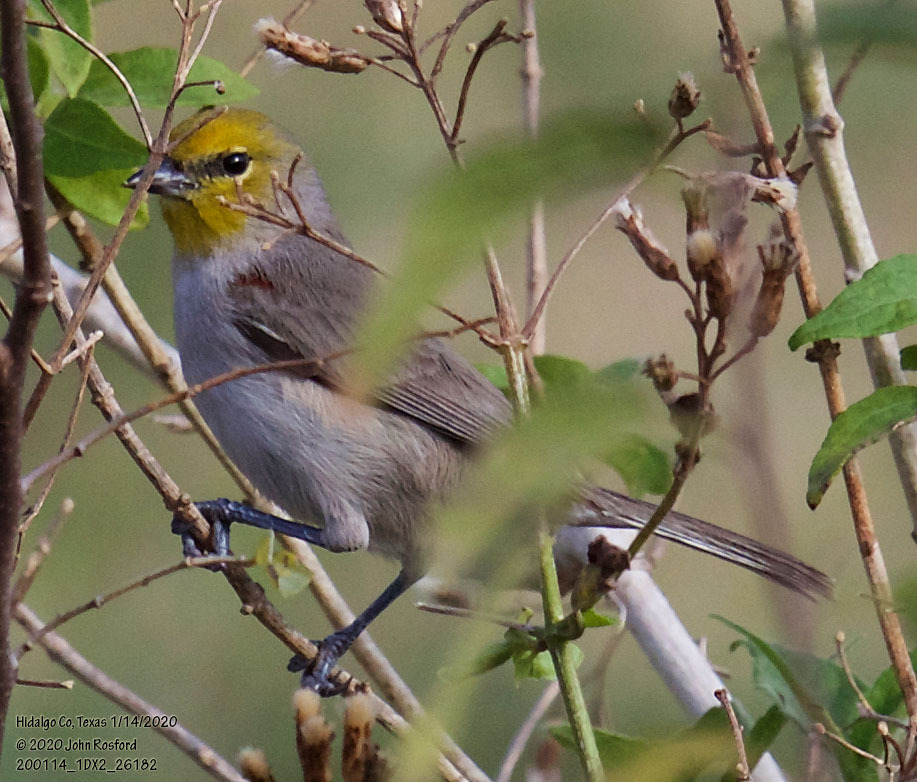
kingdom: Animalia
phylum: Chordata
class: Aves
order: Passeriformes
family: Remizidae
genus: Auriparus
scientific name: Auriparus flaviceps
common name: Verdin
